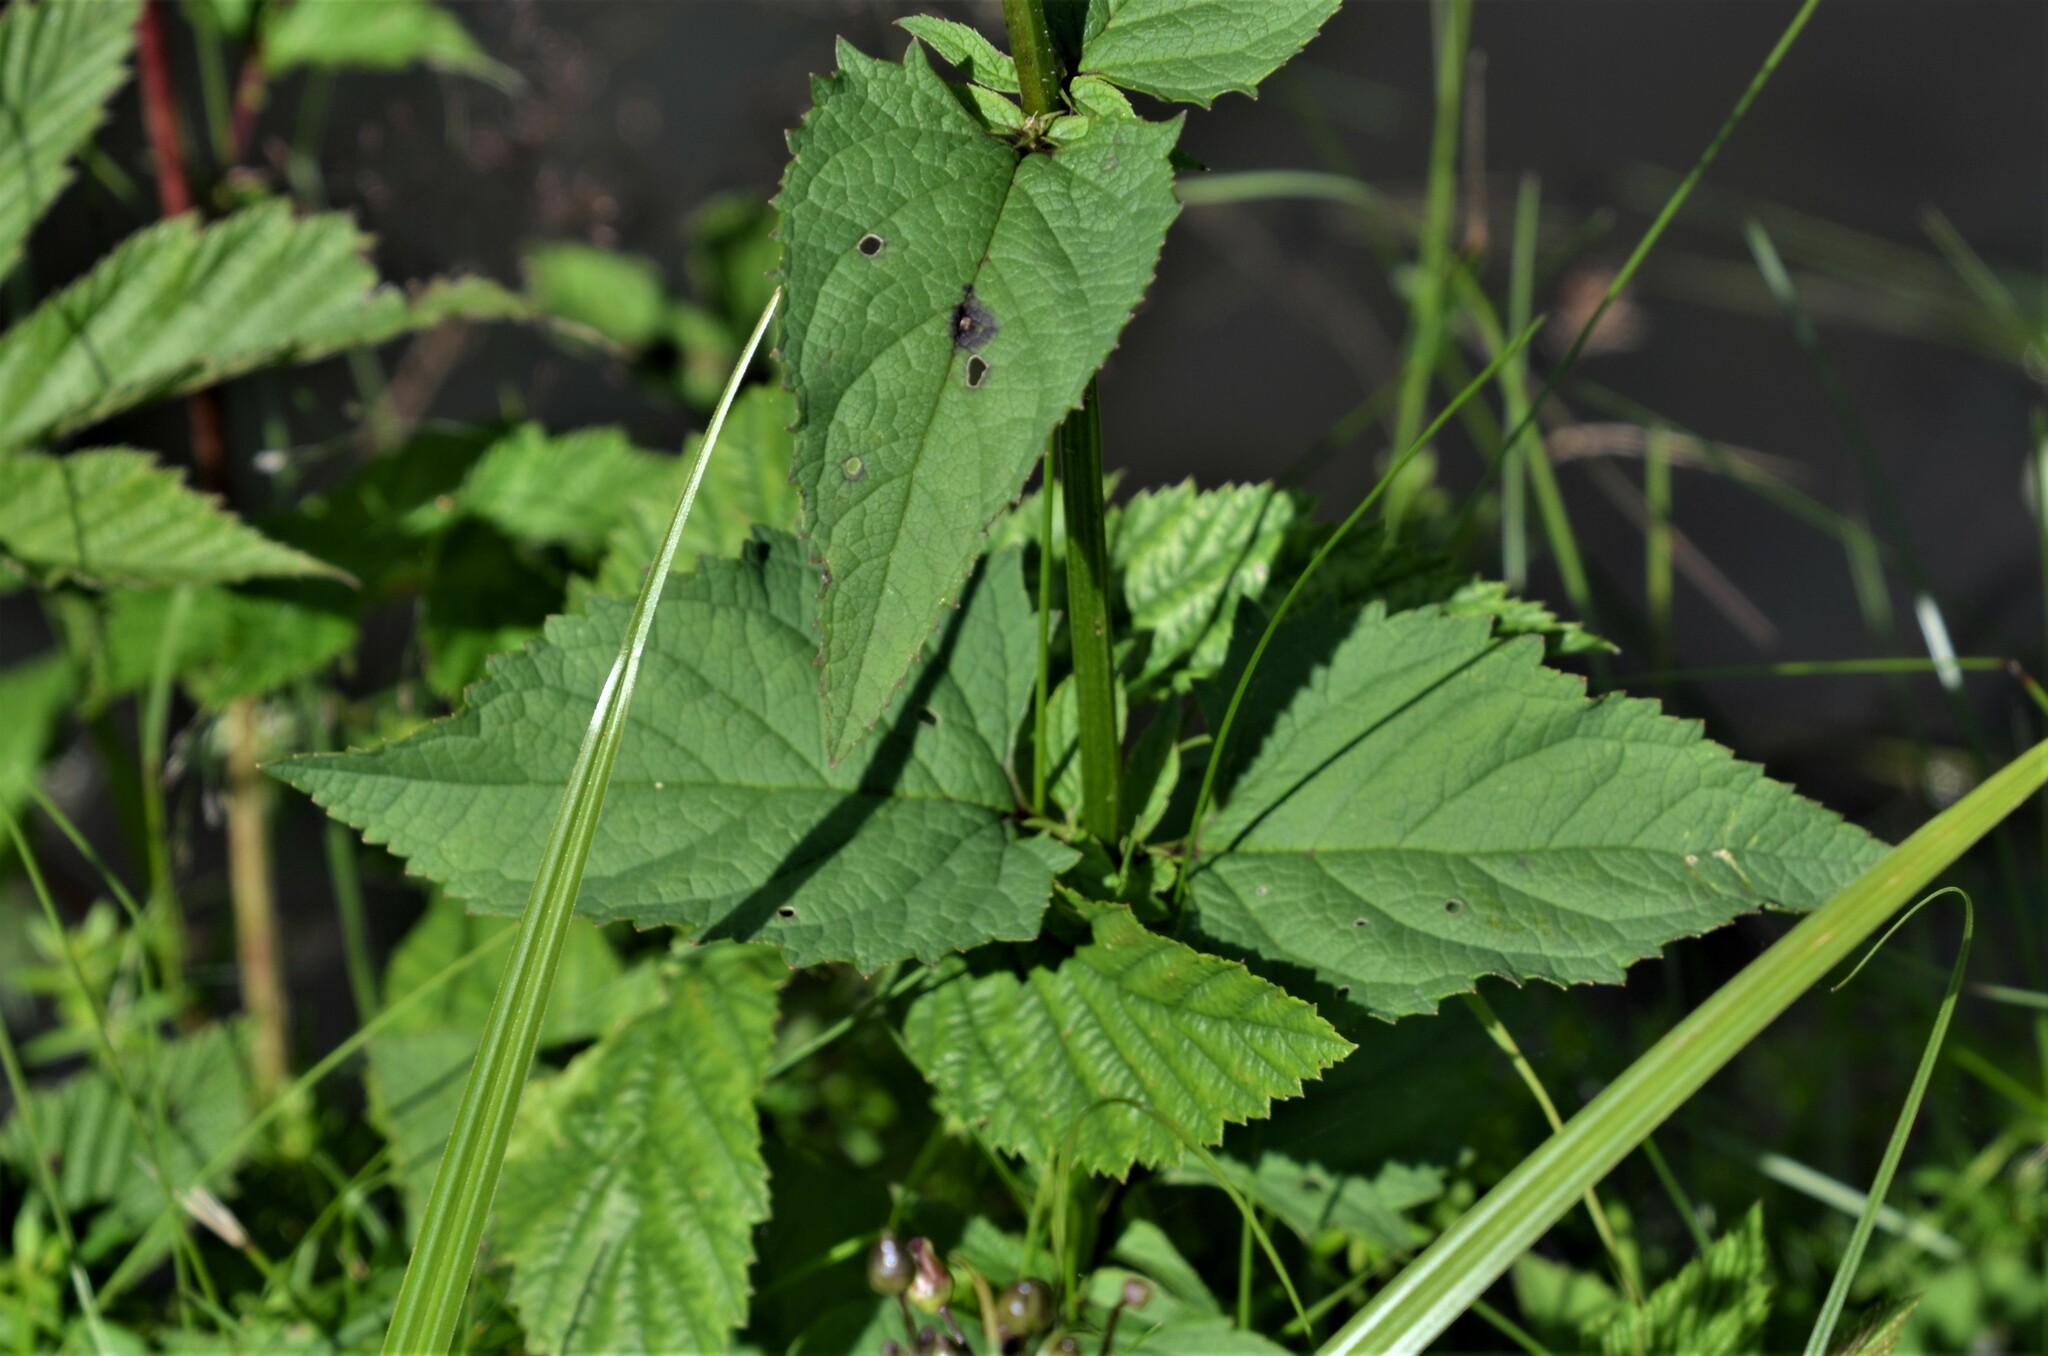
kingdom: Plantae
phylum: Tracheophyta
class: Magnoliopsida
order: Lamiales
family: Scrophulariaceae
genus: Scrophularia
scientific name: Scrophularia nodosa
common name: Common figwort
